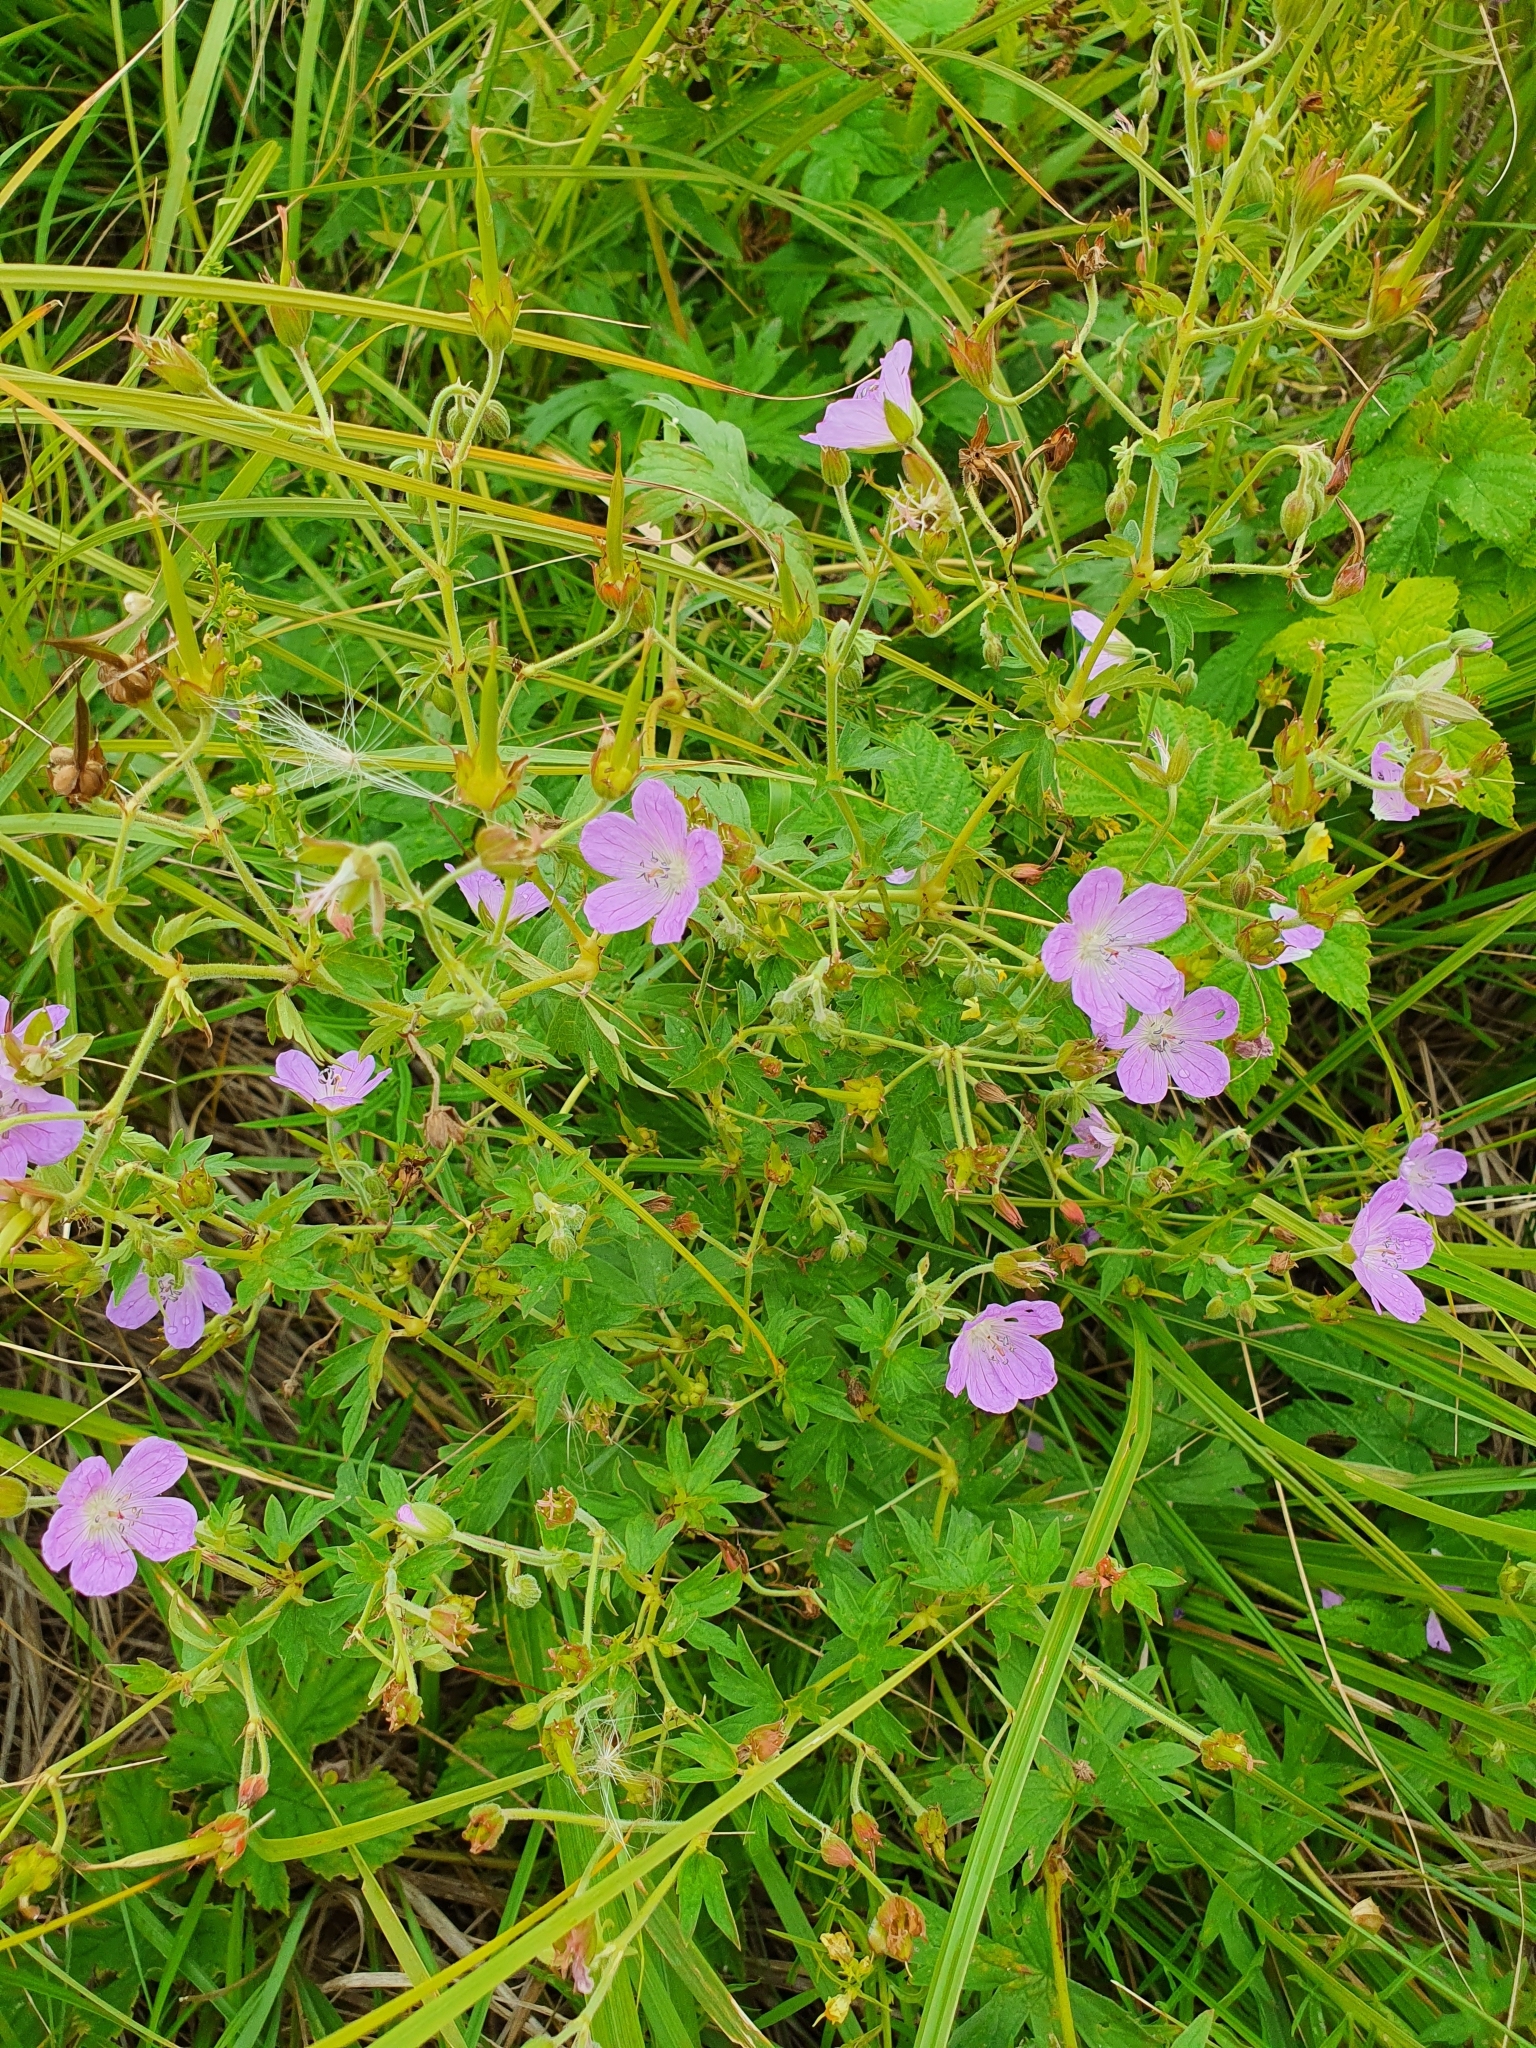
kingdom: Plantae
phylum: Tracheophyta
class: Magnoliopsida
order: Geraniales
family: Geraniaceae
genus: Geranium
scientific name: Geranium collinum
